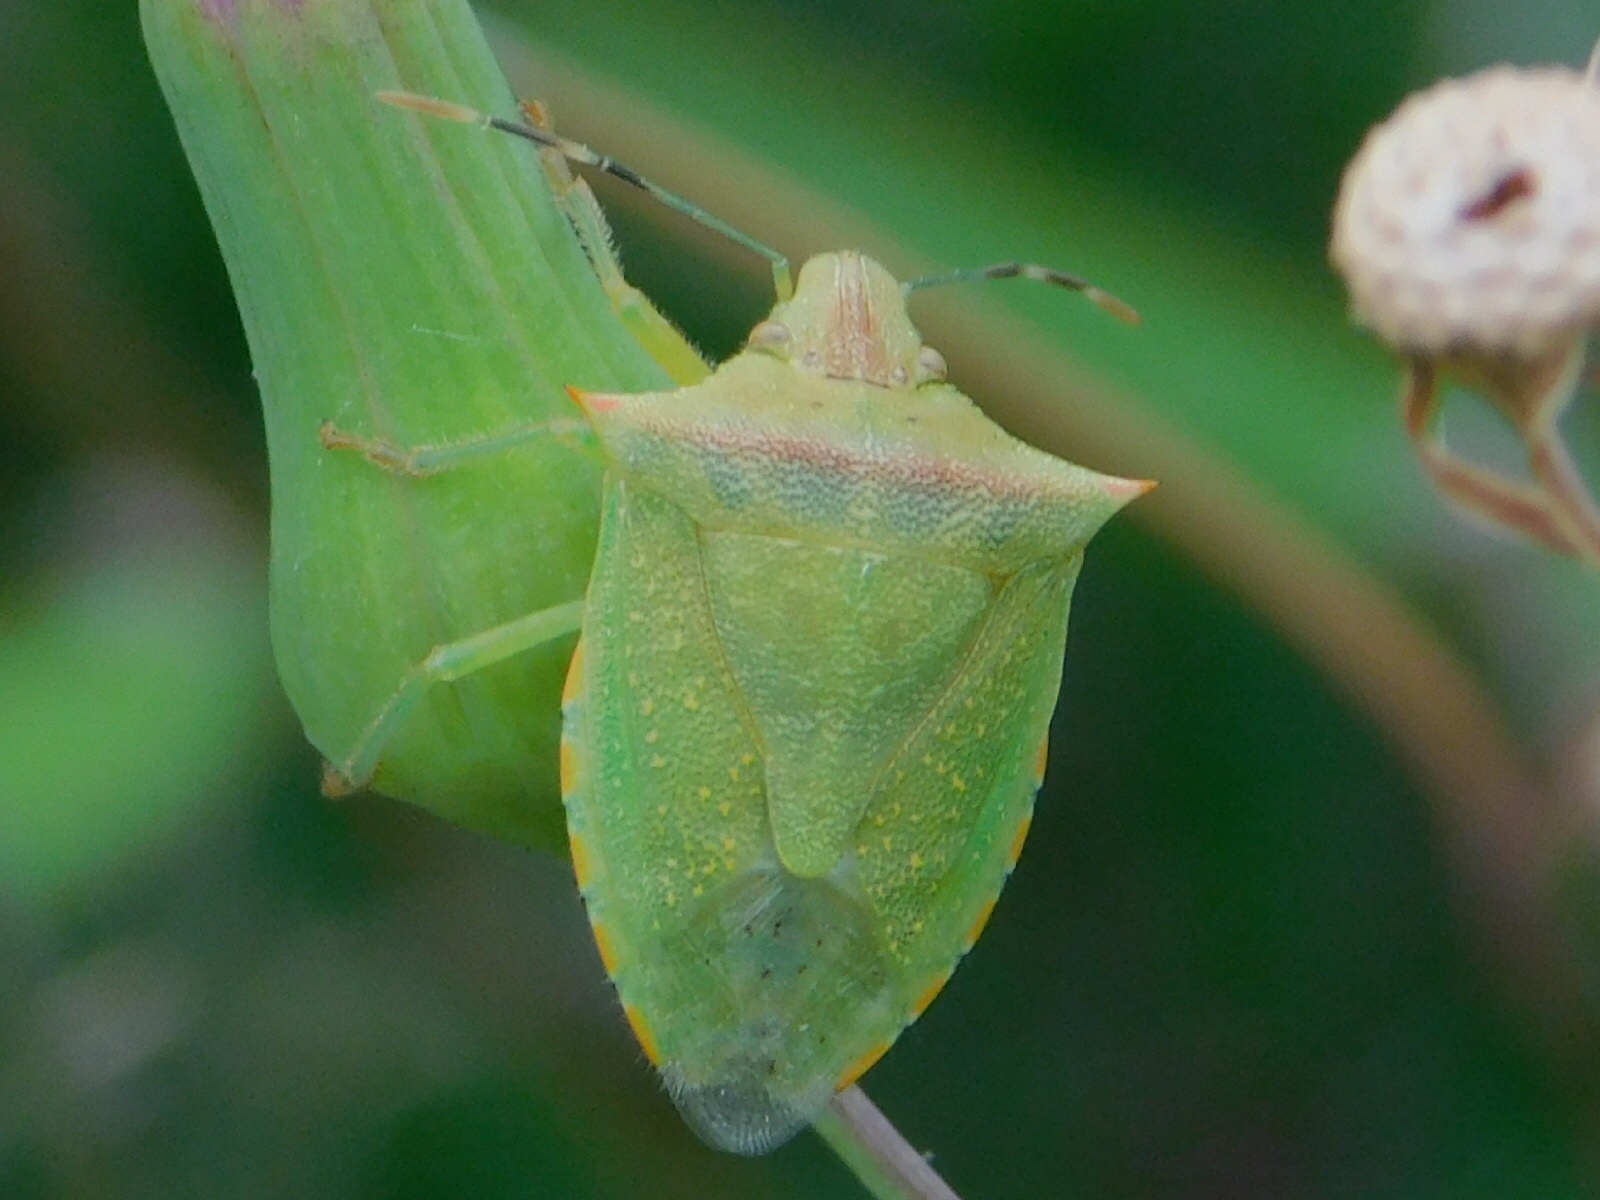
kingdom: Animalia
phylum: Arthropoda
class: Insecta
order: Hemiptera
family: Pentatomidae
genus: Thyanta
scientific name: Thyanta perditor
